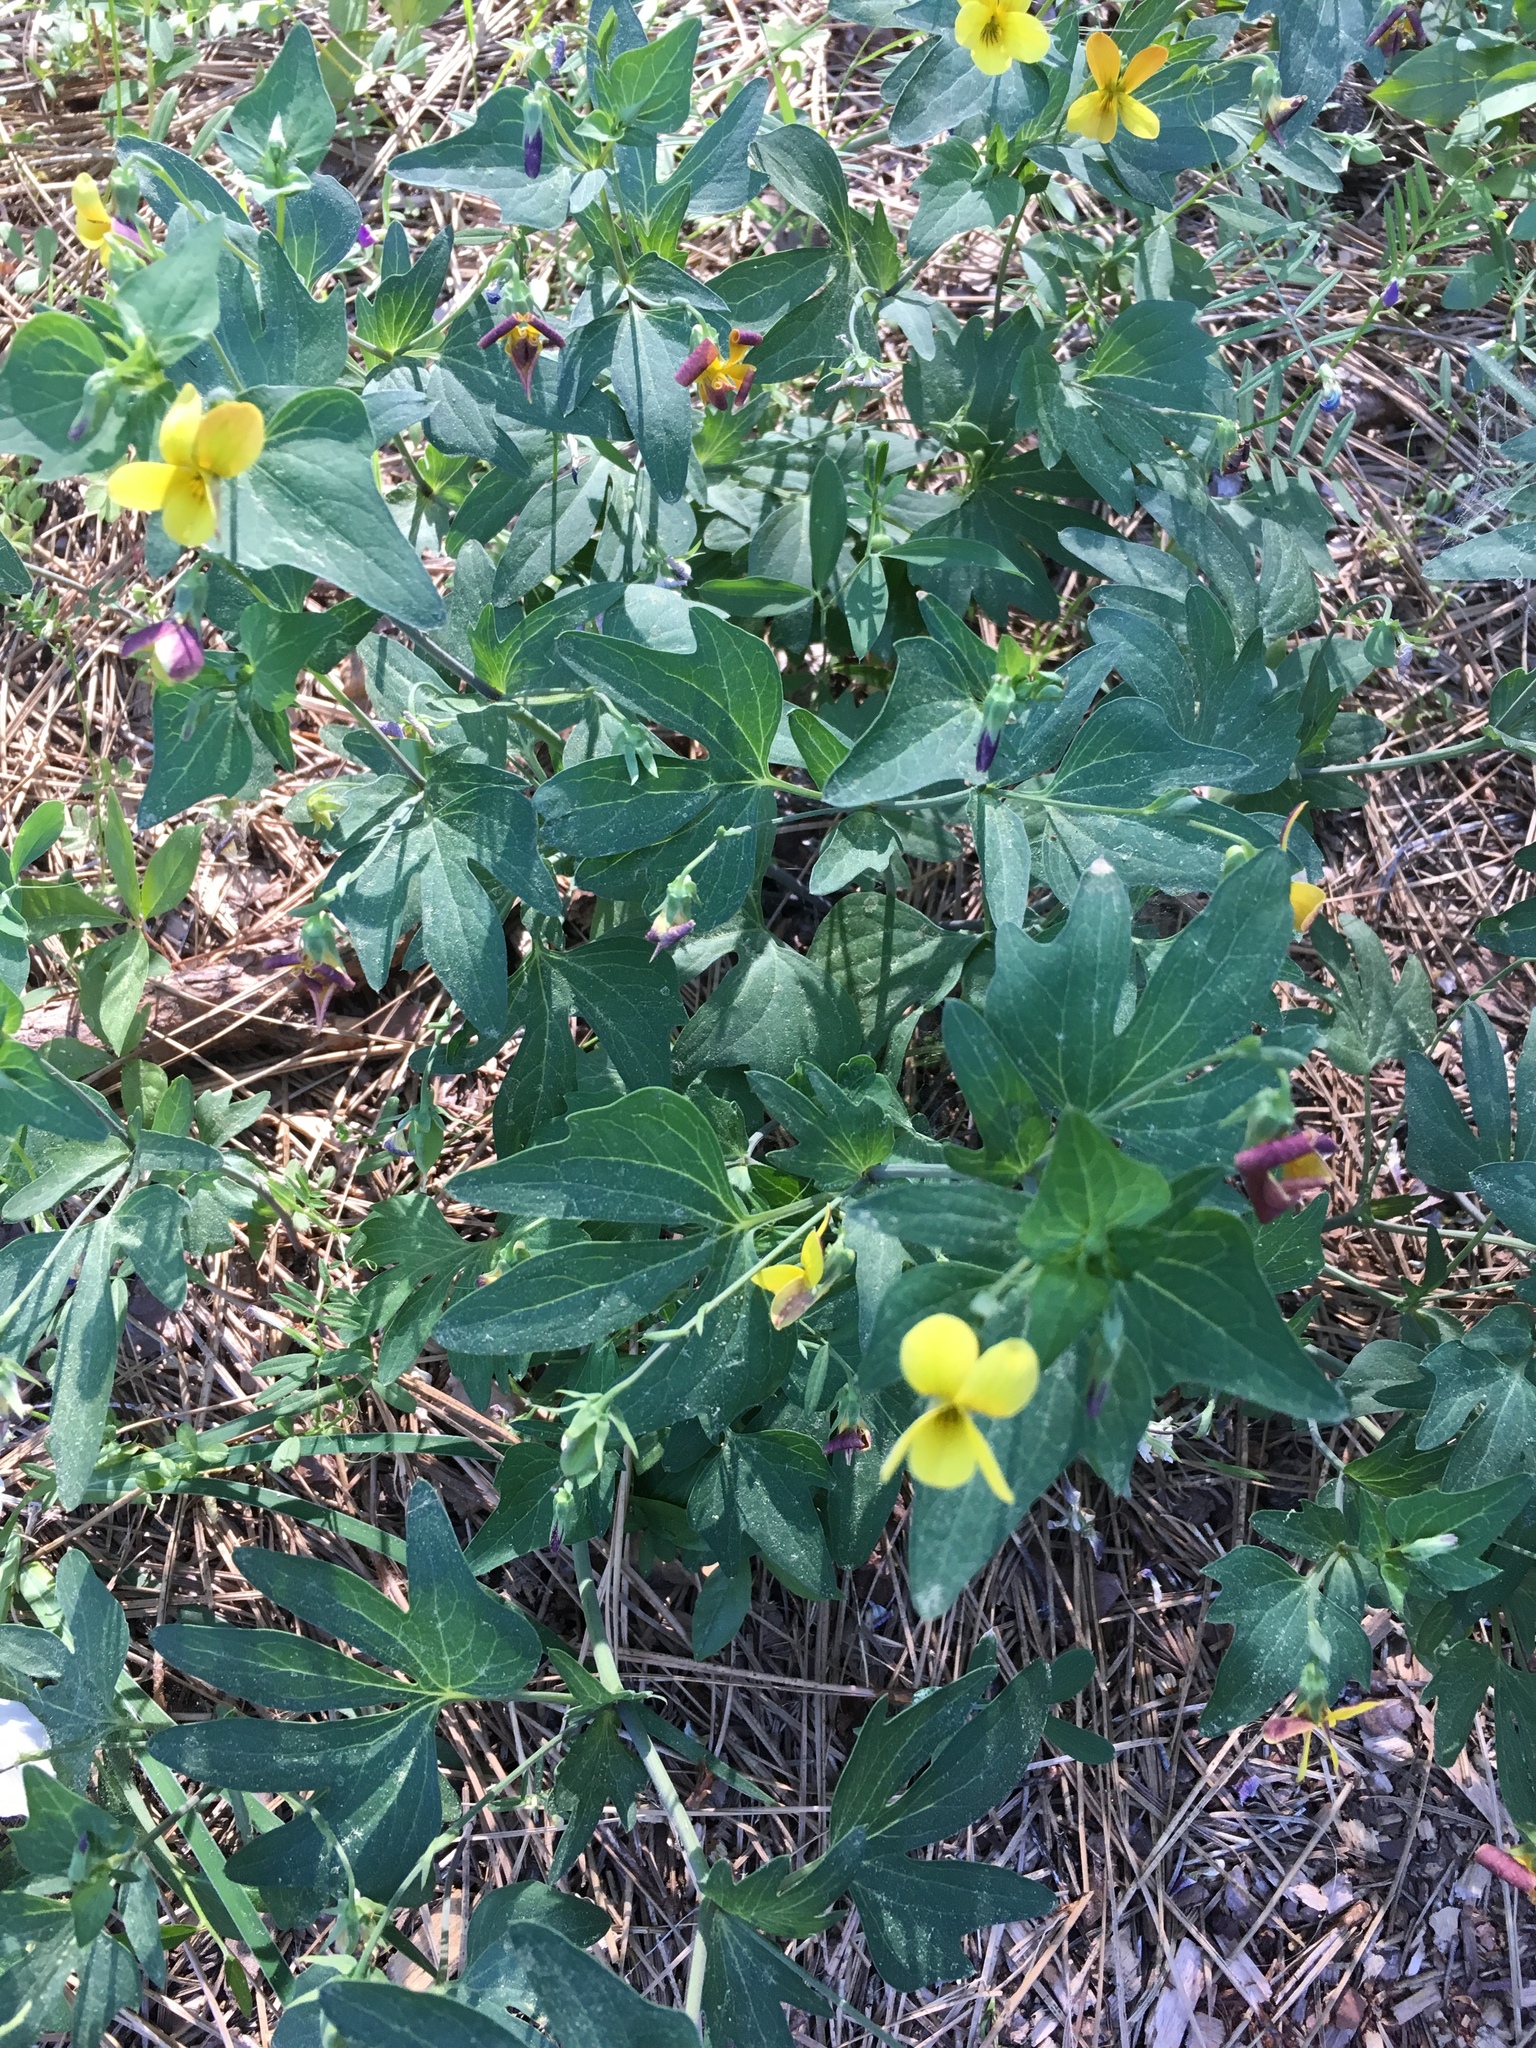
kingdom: Plantae
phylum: Tracheophyta
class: Magnoliopsida
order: Malpighiales
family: Violaceae
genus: Viola
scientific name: Viola lobata
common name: Pine violet
